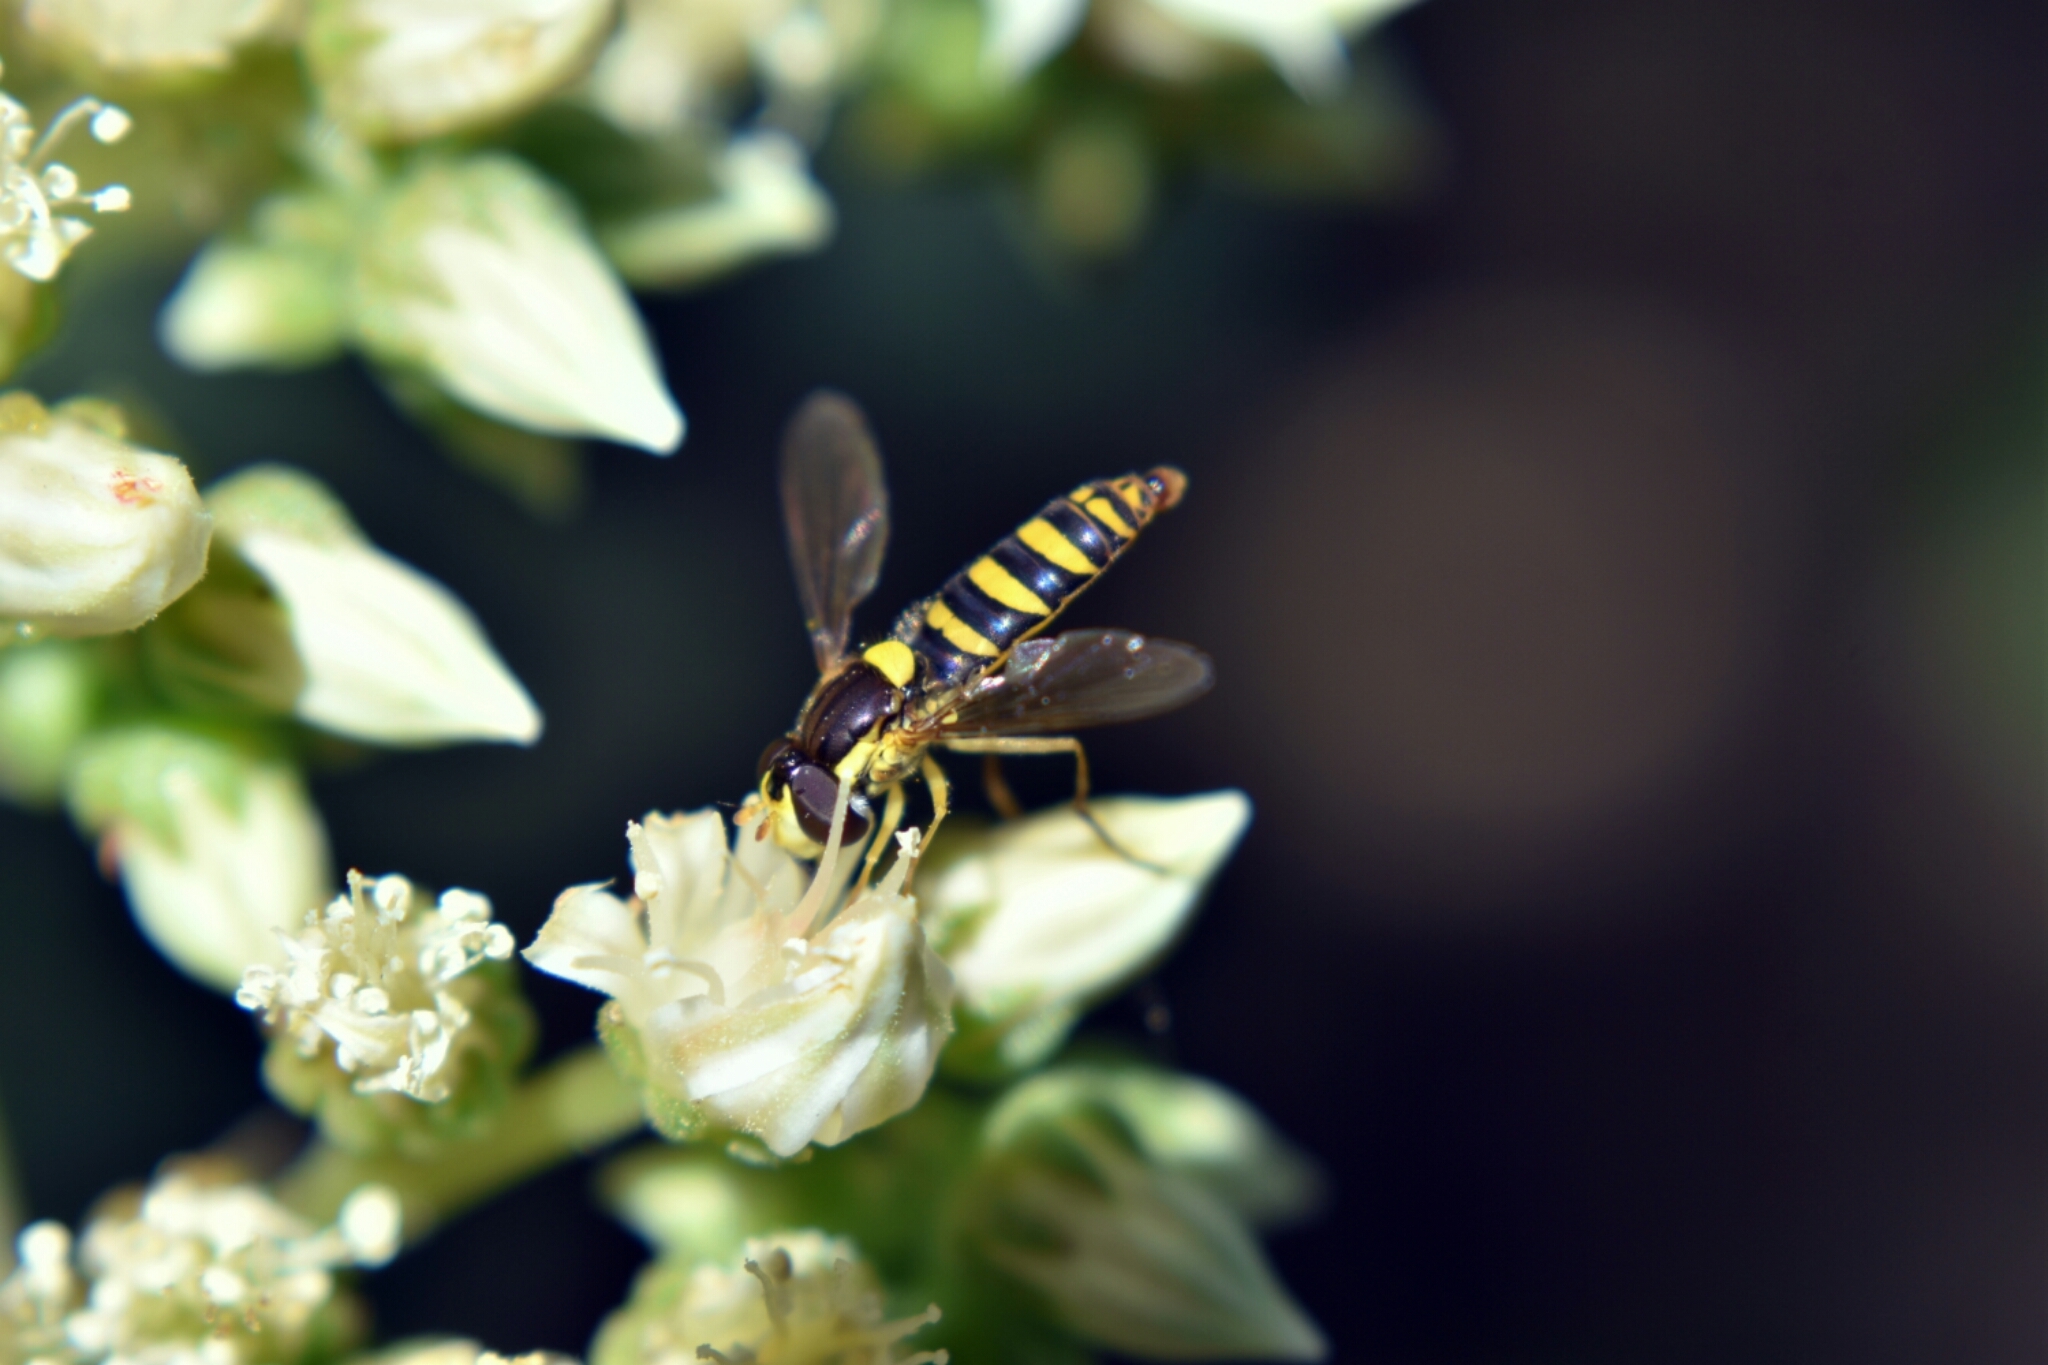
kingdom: Animalia
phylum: Arthropoda
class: Insecta
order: Diptera
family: Syrphidae
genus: Sphaerophoria
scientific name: Sphaerophoria
